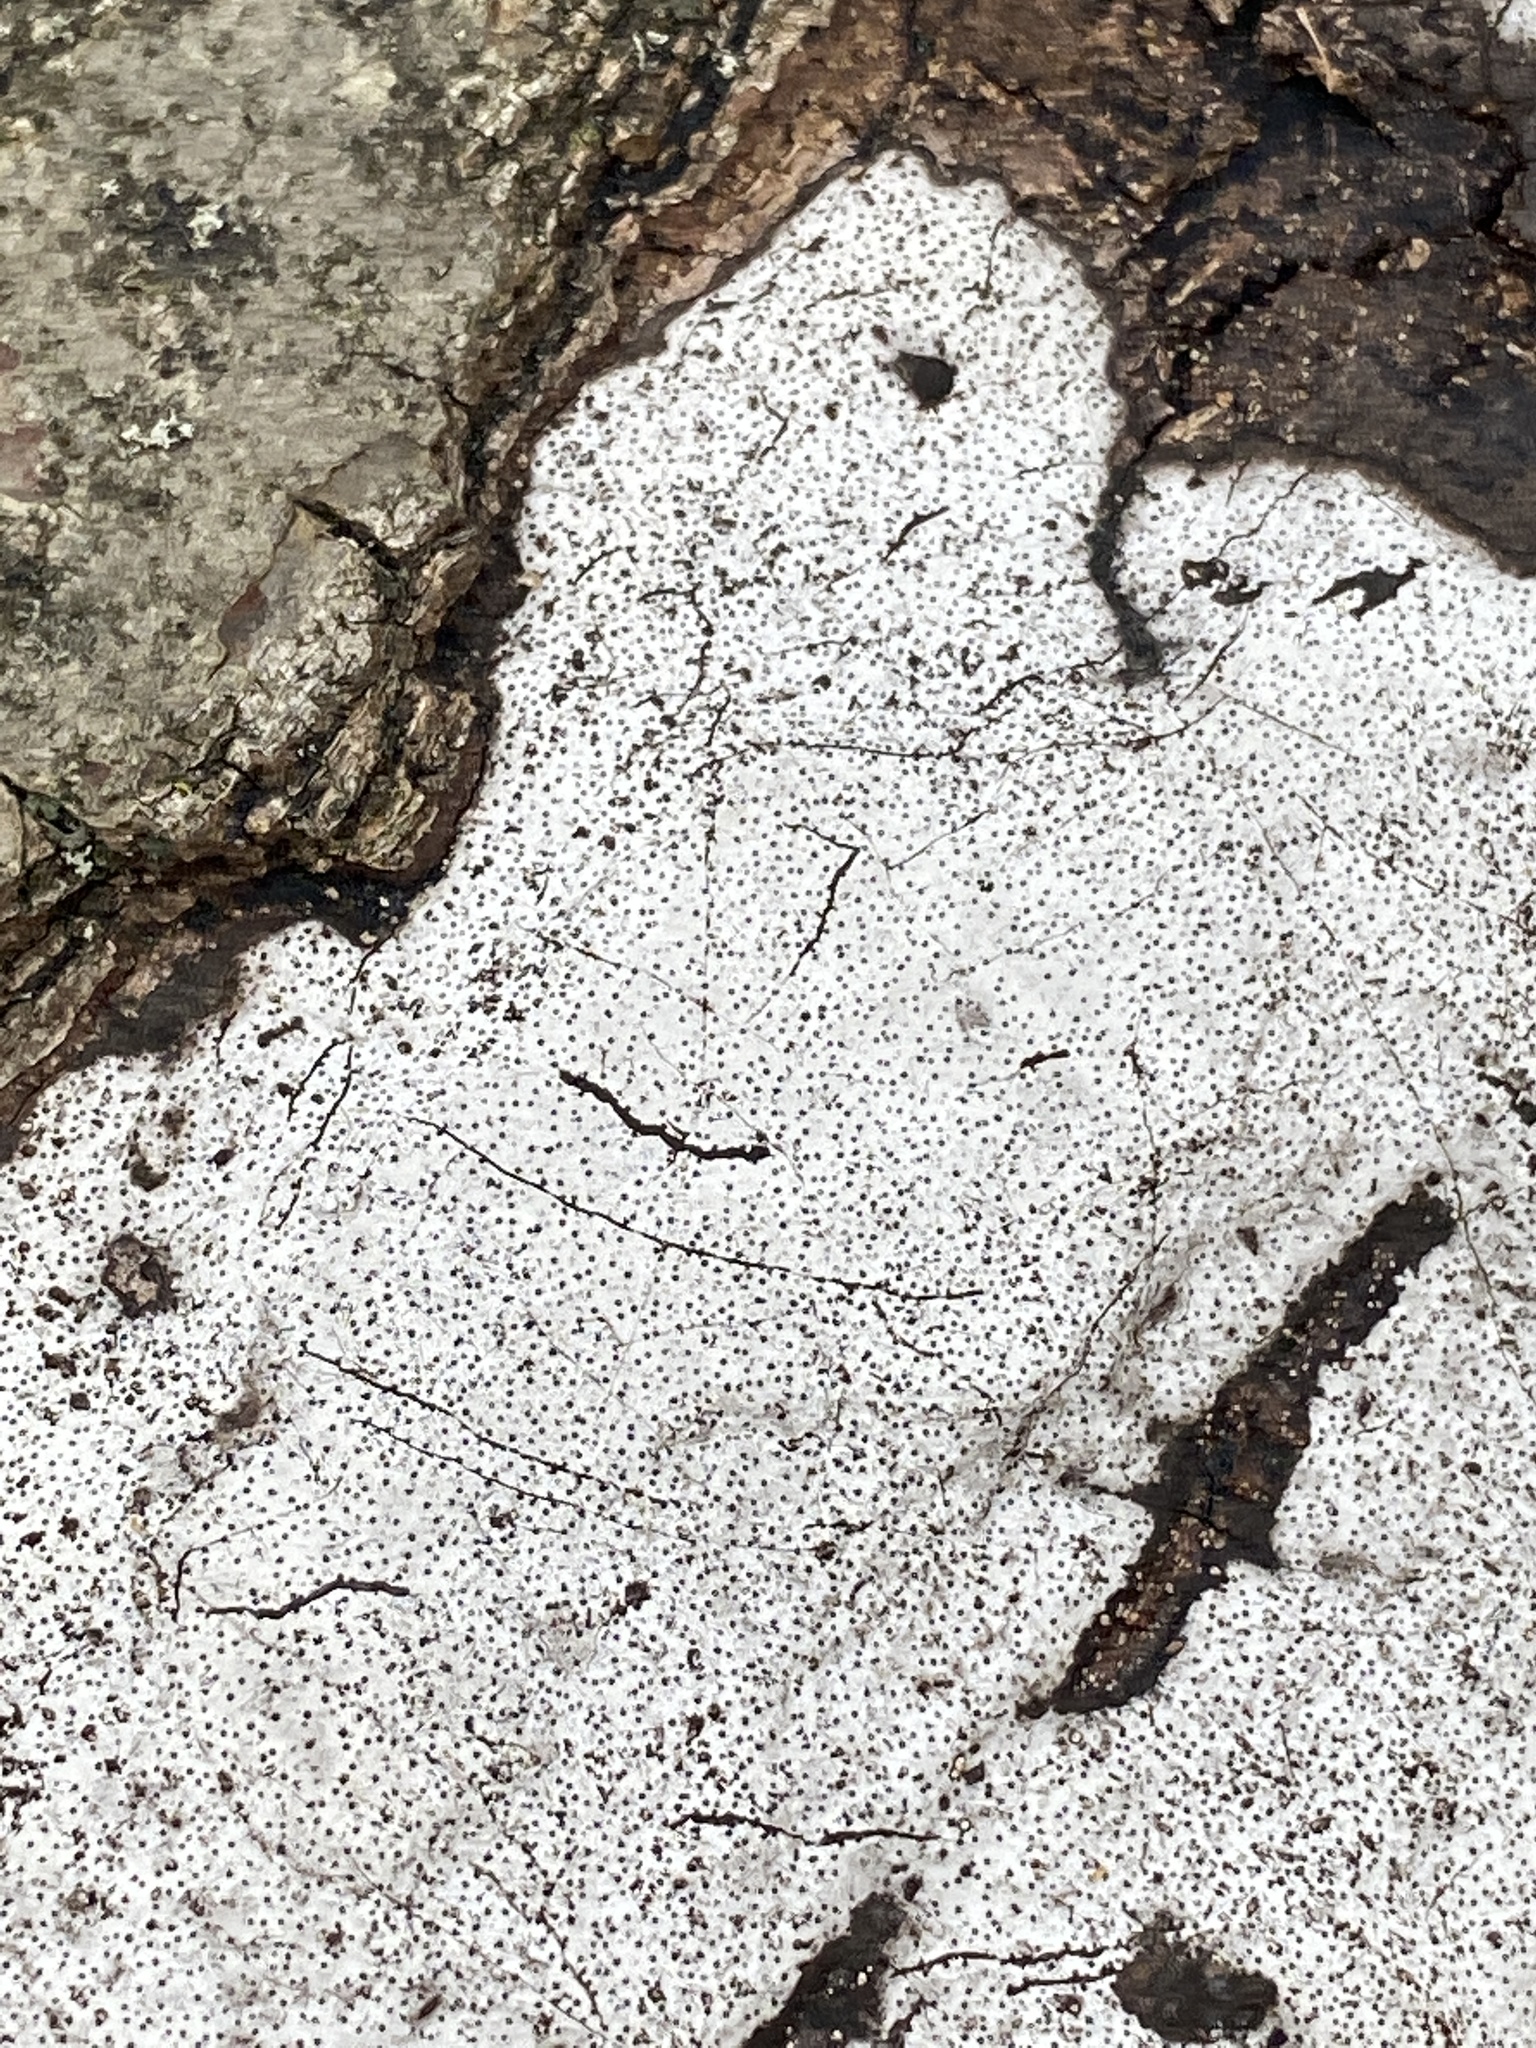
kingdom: Fungi
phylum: Ascomycota
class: Sordariomycetes
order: Xylariales
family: Graphostromataceae
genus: Biscogniauxia
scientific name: Biscogniauxia atropunctata
